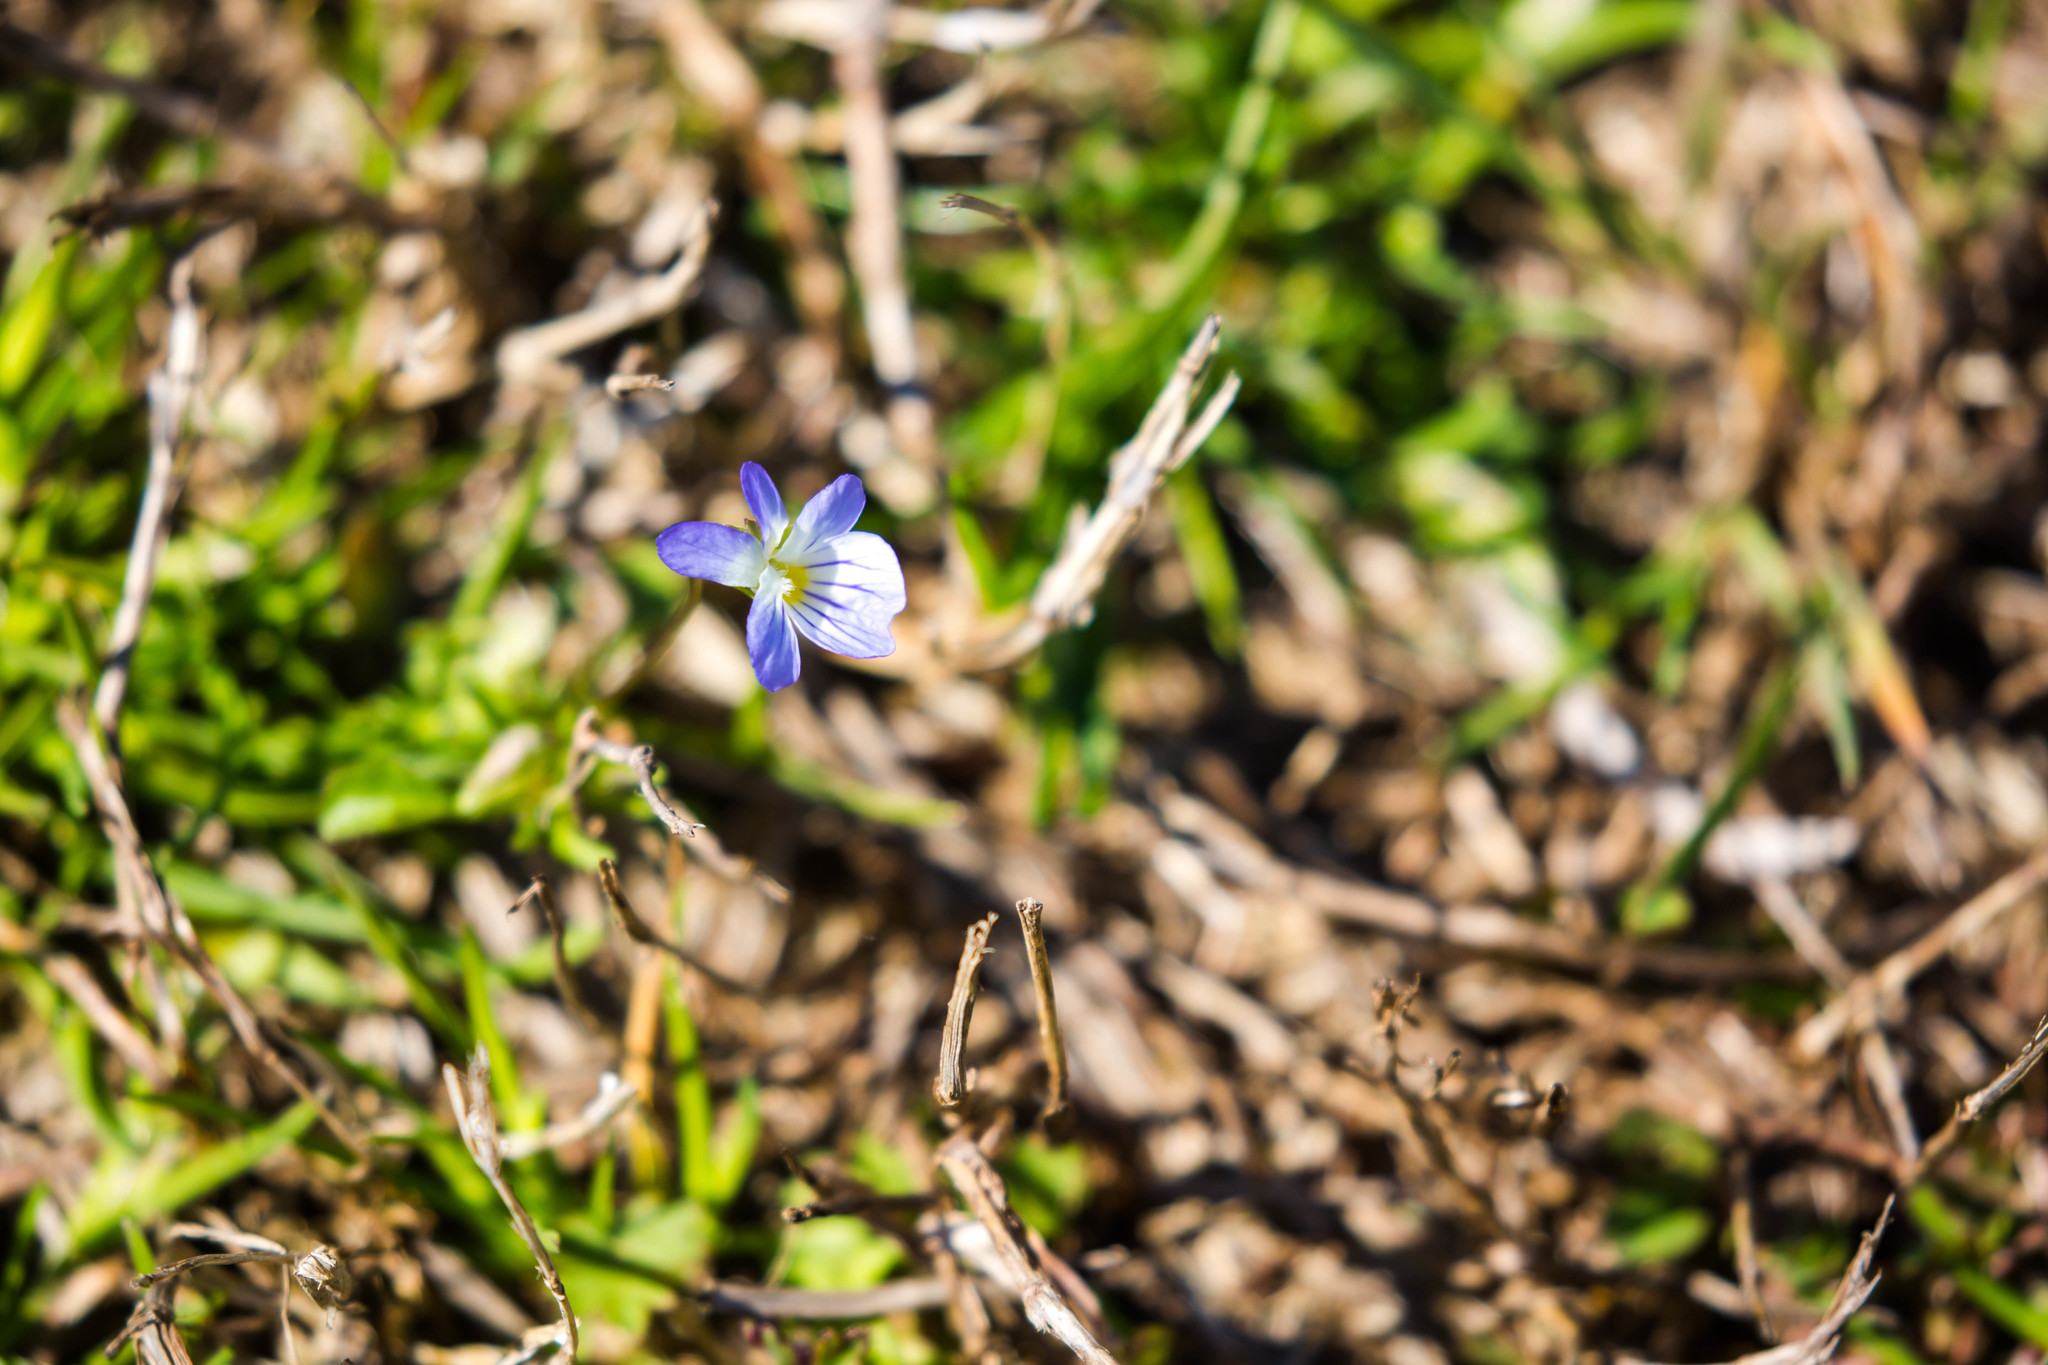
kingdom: Plantae
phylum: Tracheophyta
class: Magnoliopsida
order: Malpighiales
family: Violaceae
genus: Viola
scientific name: Viola rafinesquei
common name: American field pansy
